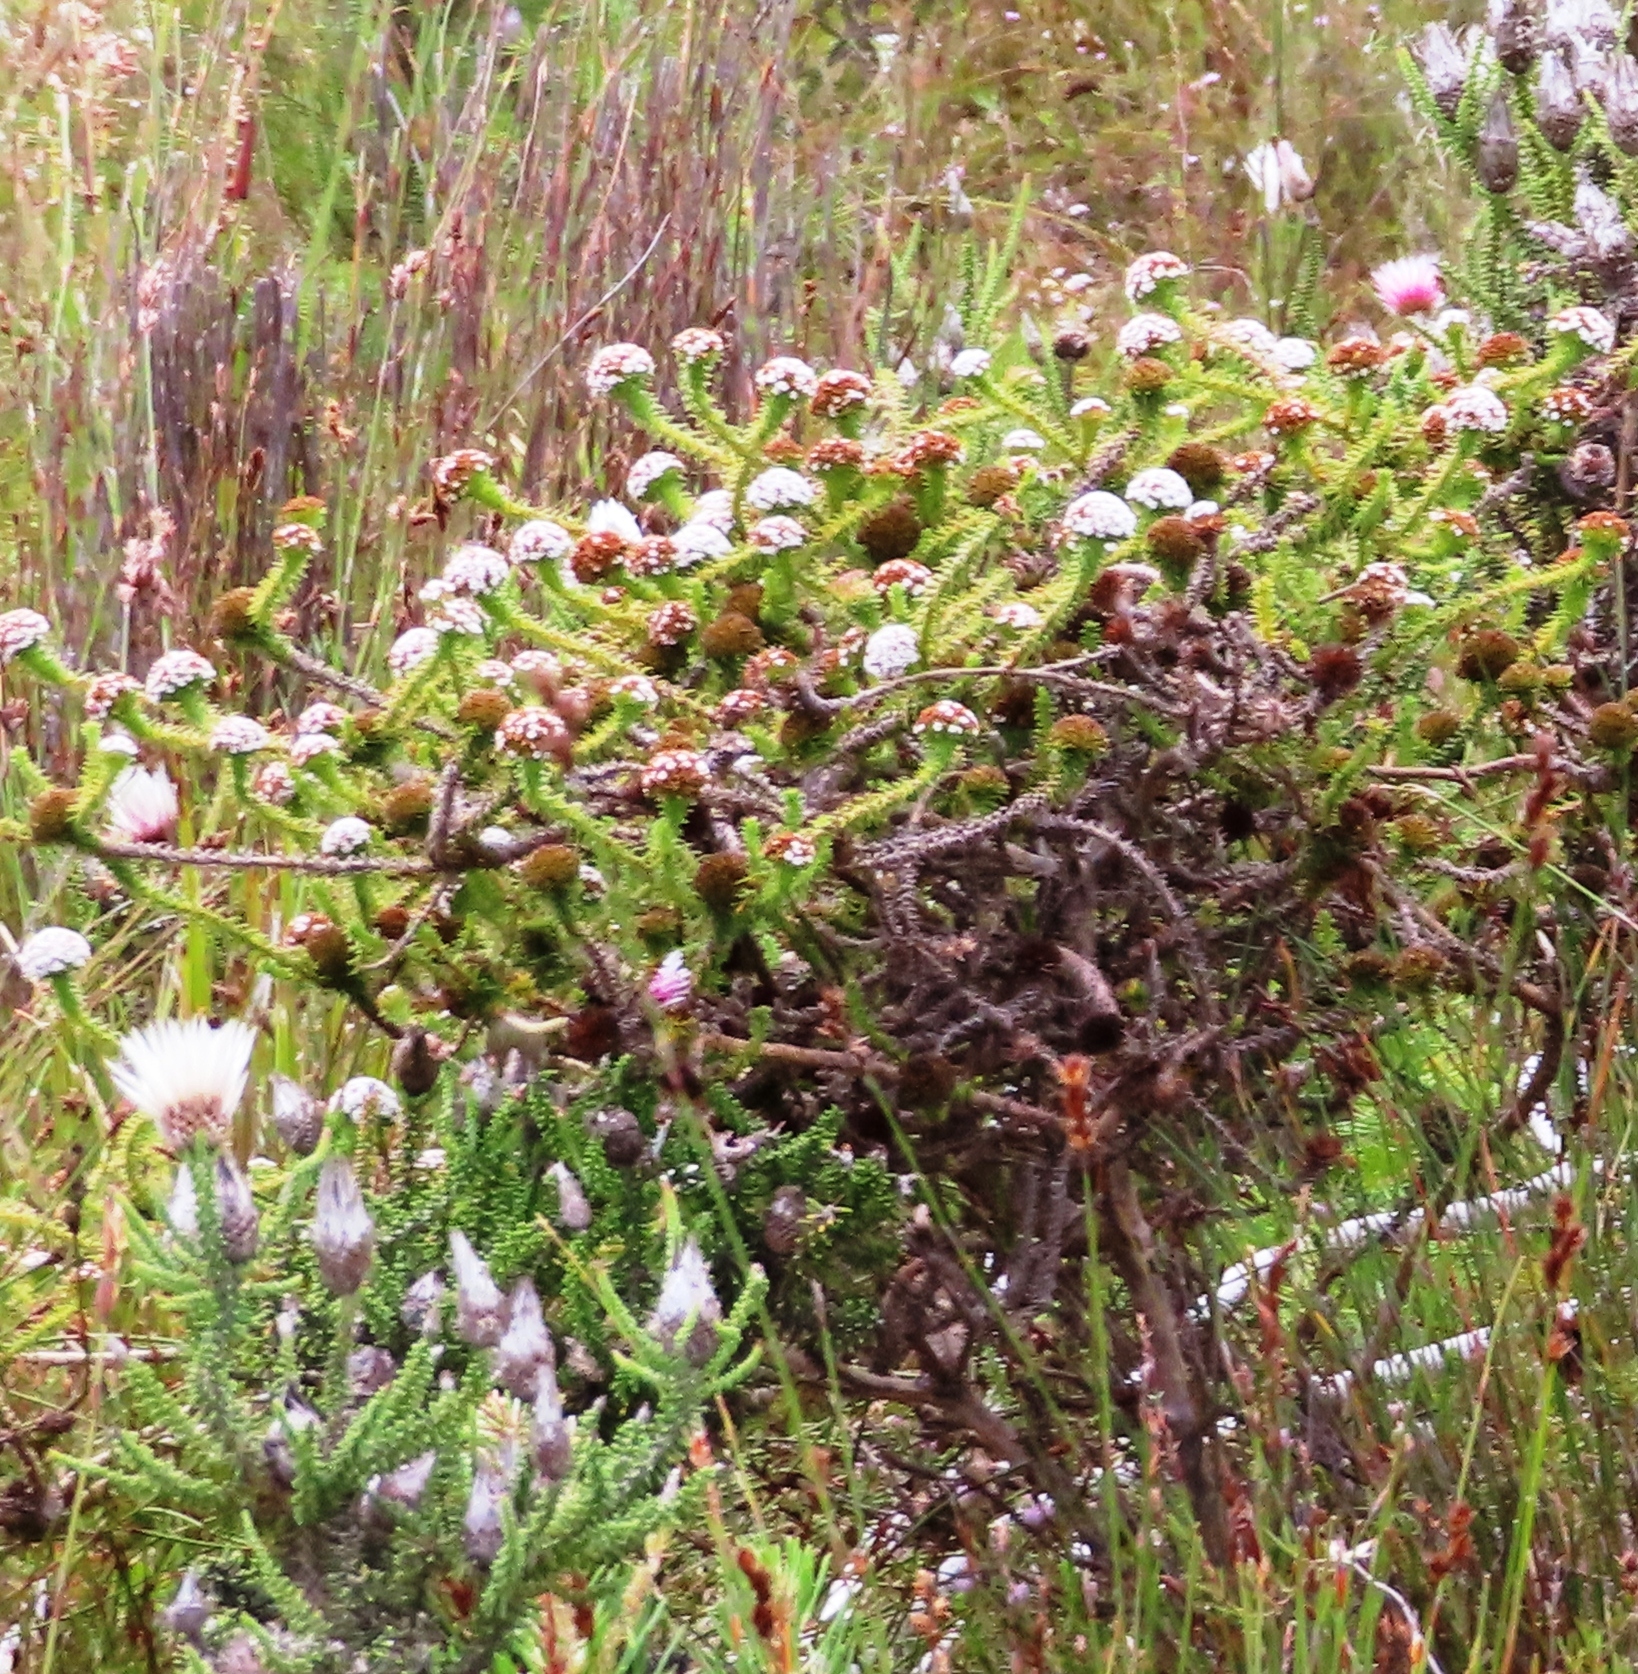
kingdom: Plantae
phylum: Tracheophyta
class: Magnoliopsida
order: Asterales
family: Asteraceae
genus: Stoebe
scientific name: Stoebe aethiopica
